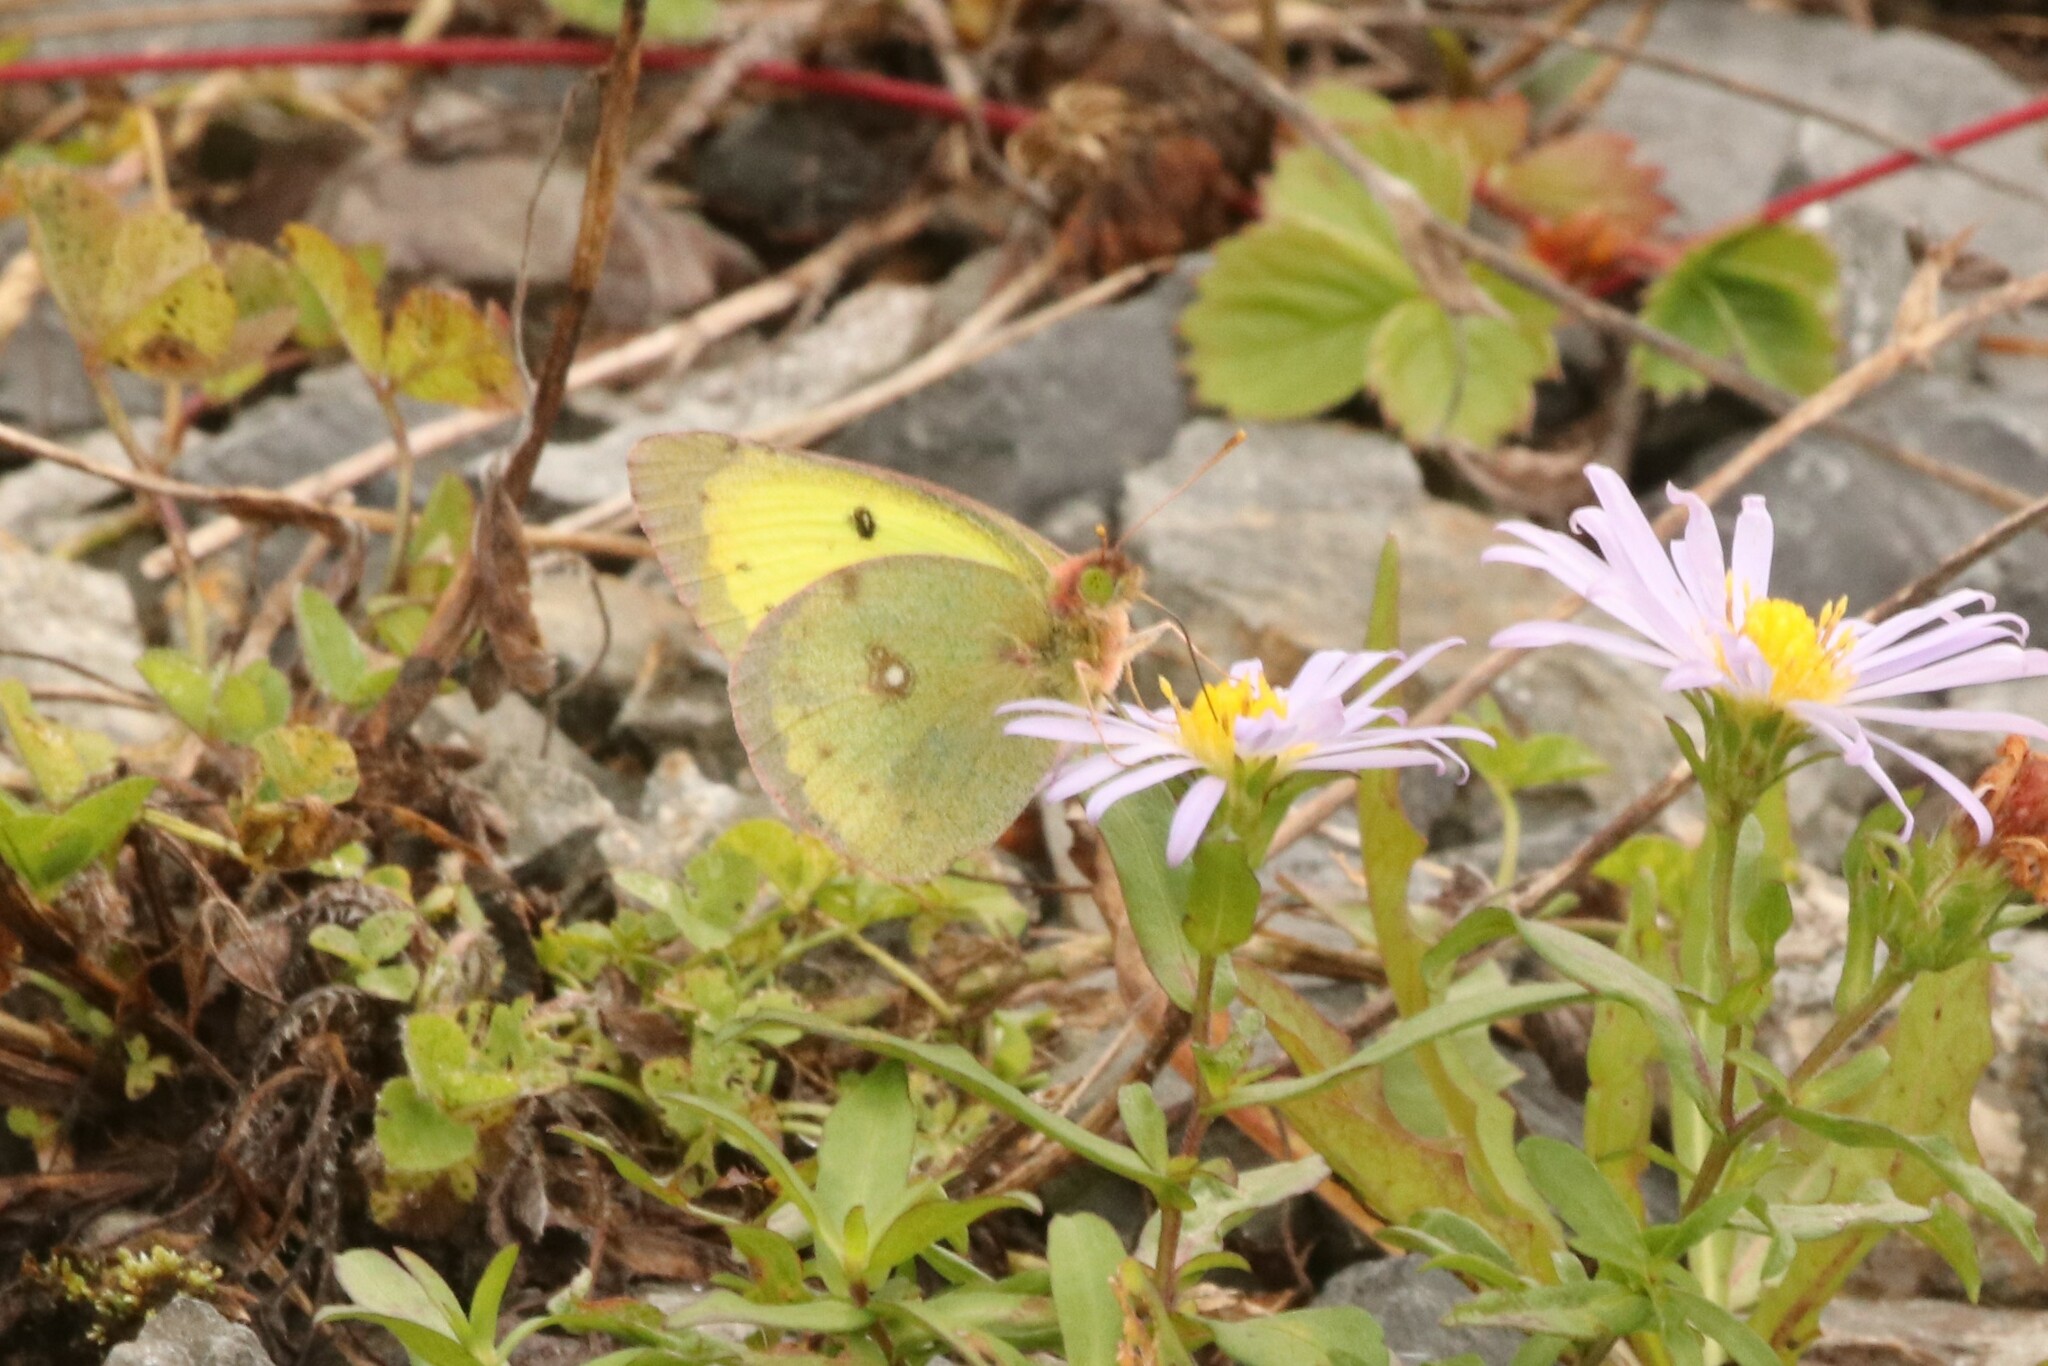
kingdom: Animalia
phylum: Arthropoda
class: Insecta
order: Lepidoptera
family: Pieridae
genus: Colias
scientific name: Colias philodice
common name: Clouded sulphur
